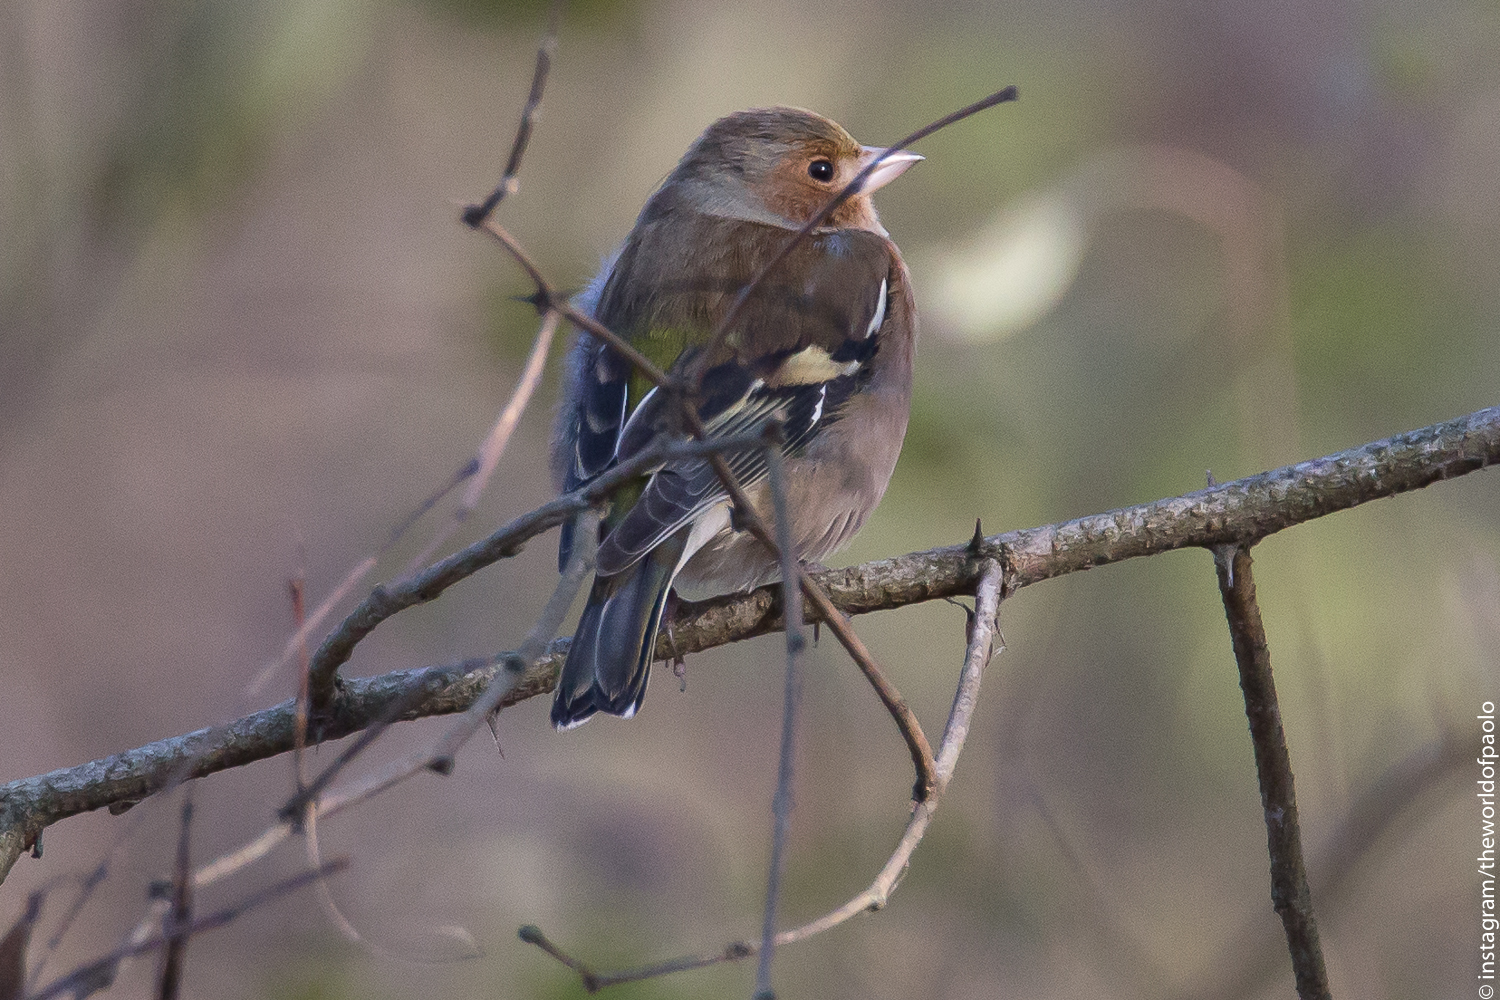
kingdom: Animalia
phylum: Chordata
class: Aves
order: Passeriformes
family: Fringillidae
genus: Fringilla
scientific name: Fringilla coelebs
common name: Common chaffinch
